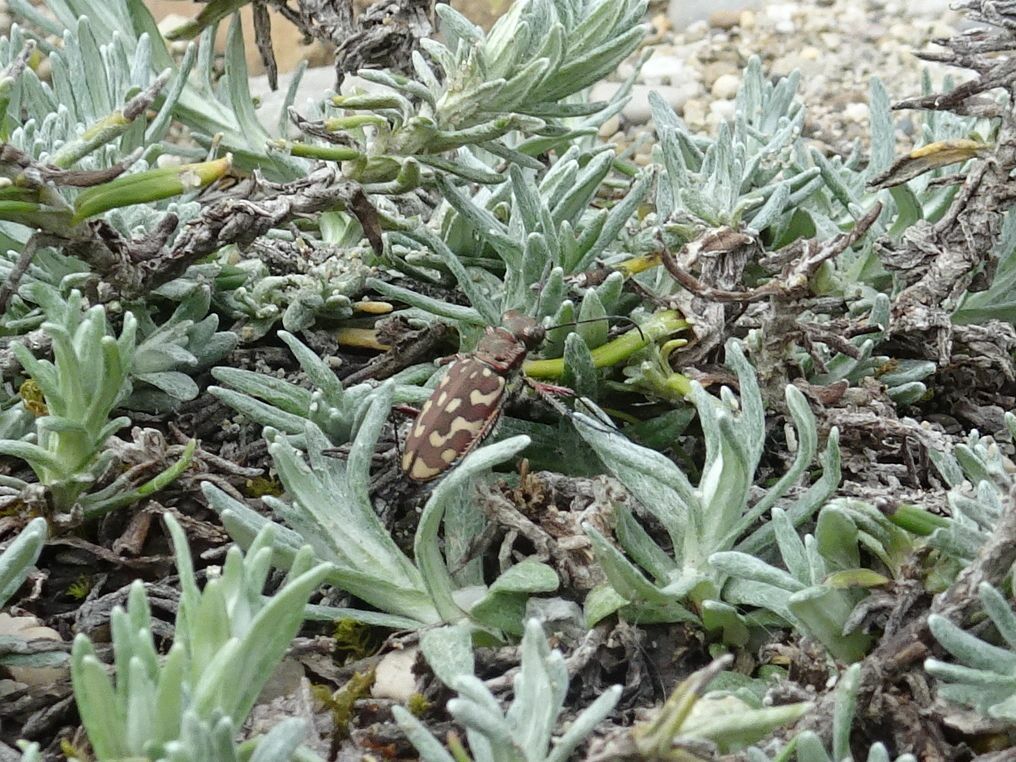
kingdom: Animalia
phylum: Arthropoda
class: Insecta
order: Coleoptera
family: Carabidae
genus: Lophyra
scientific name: Lophyra flexuosa
